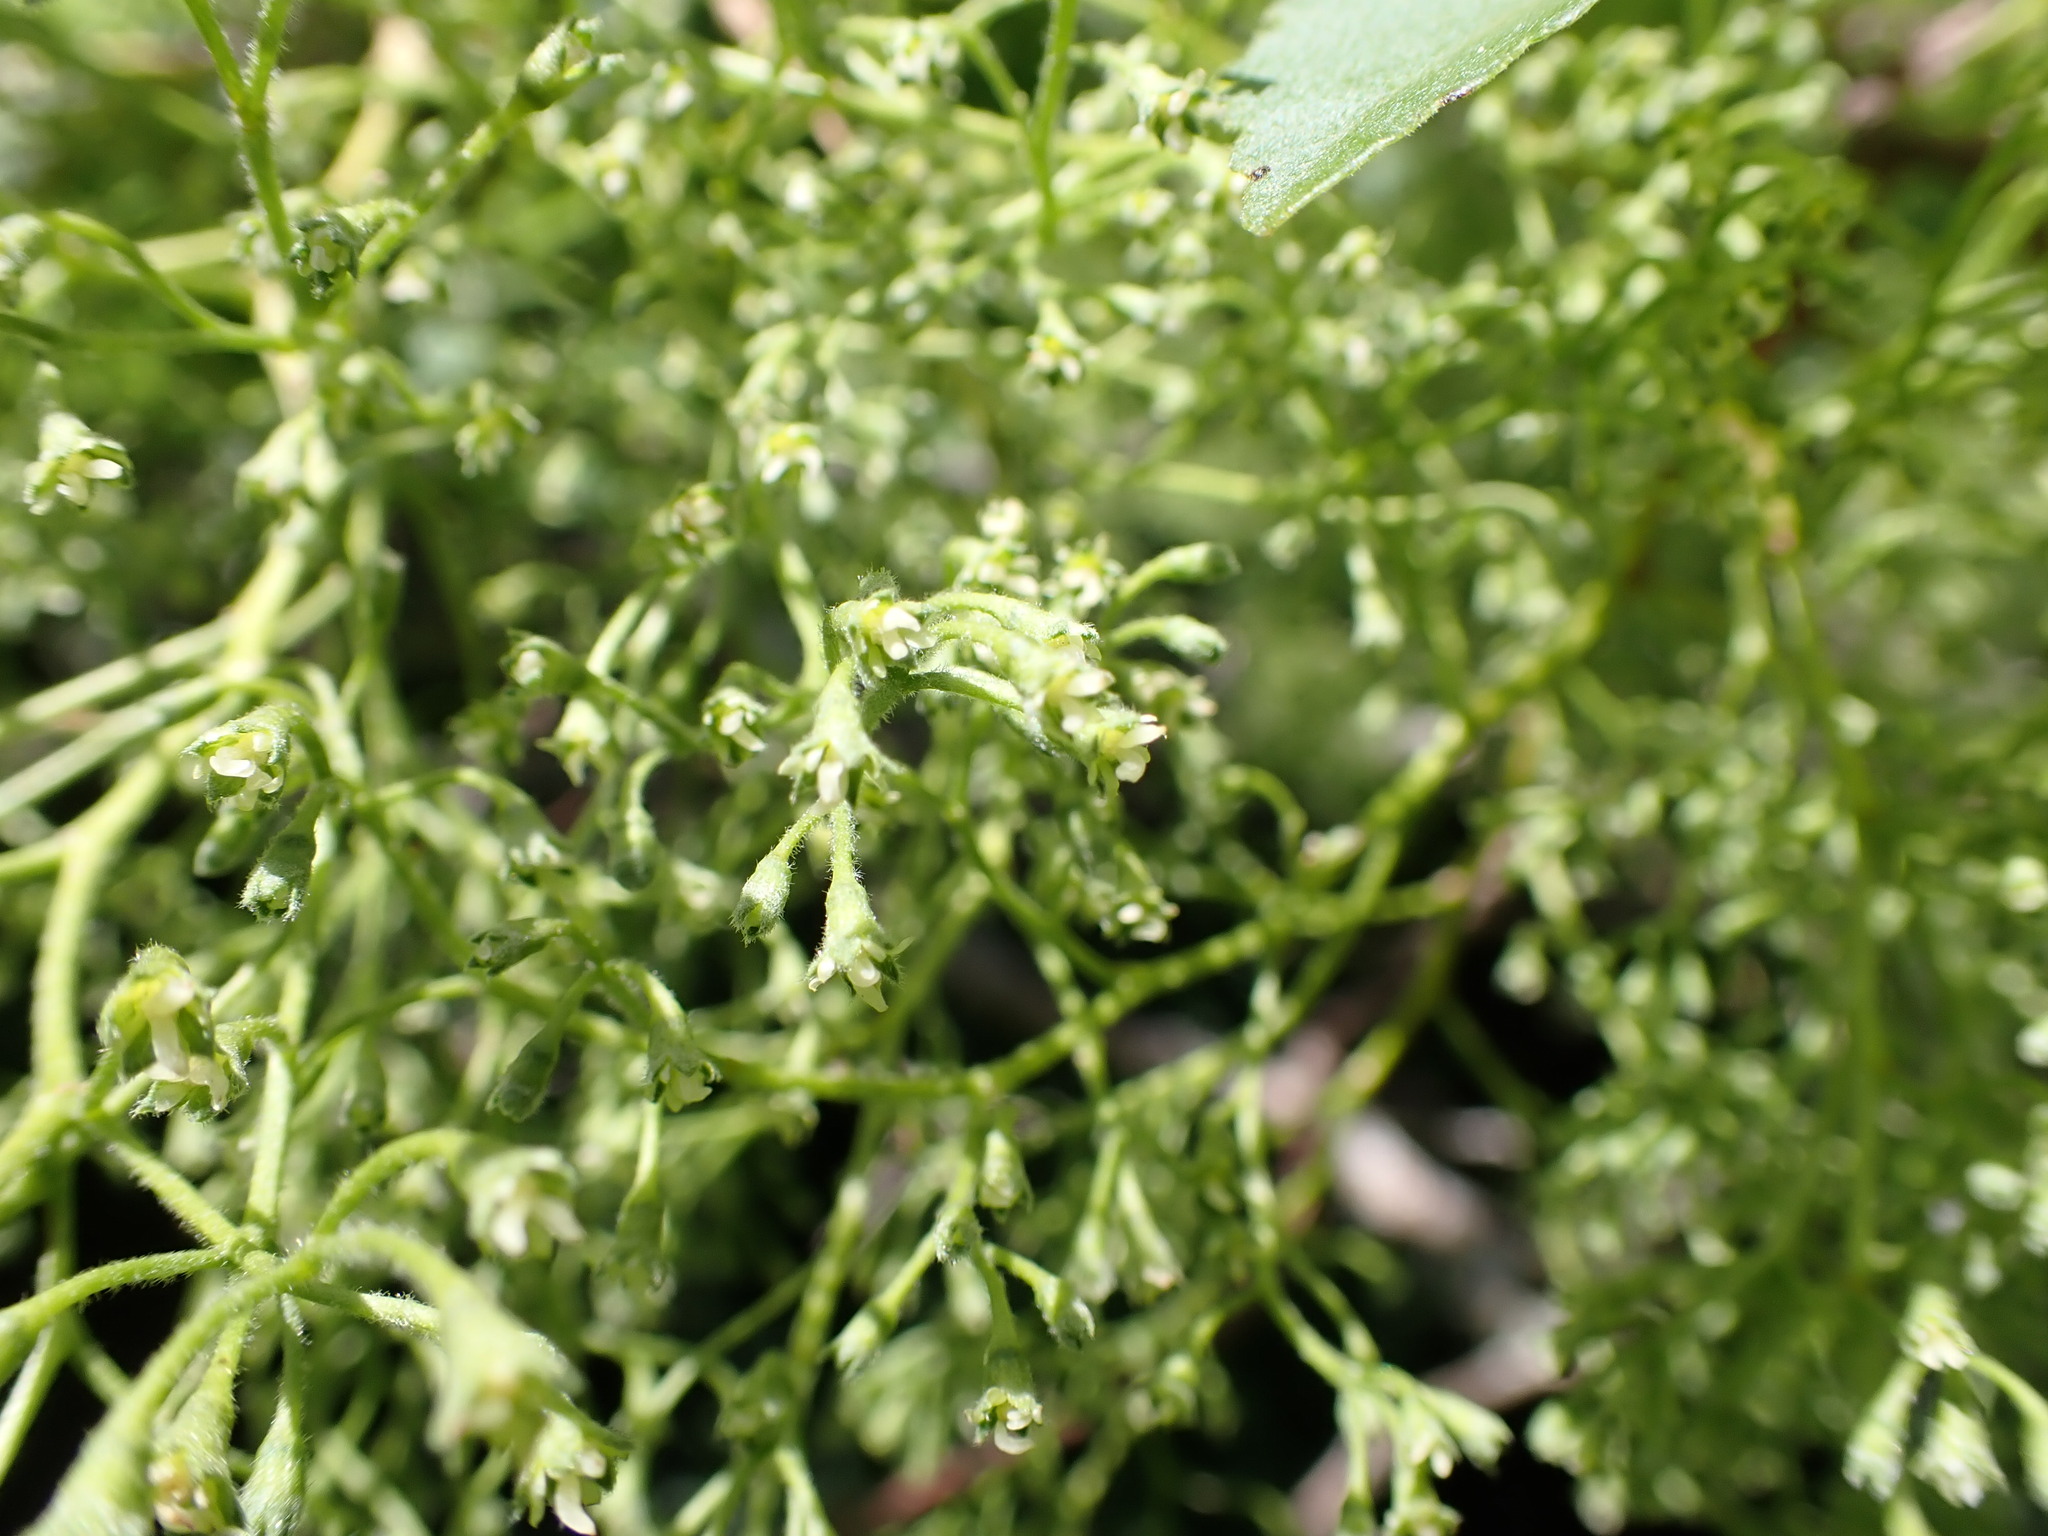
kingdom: Plantae
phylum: Tracheophyta
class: Magnoliopsida
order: Malvales
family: Malvaceae
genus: Plagianthus
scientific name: Plagianthus regius
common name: Manatu
